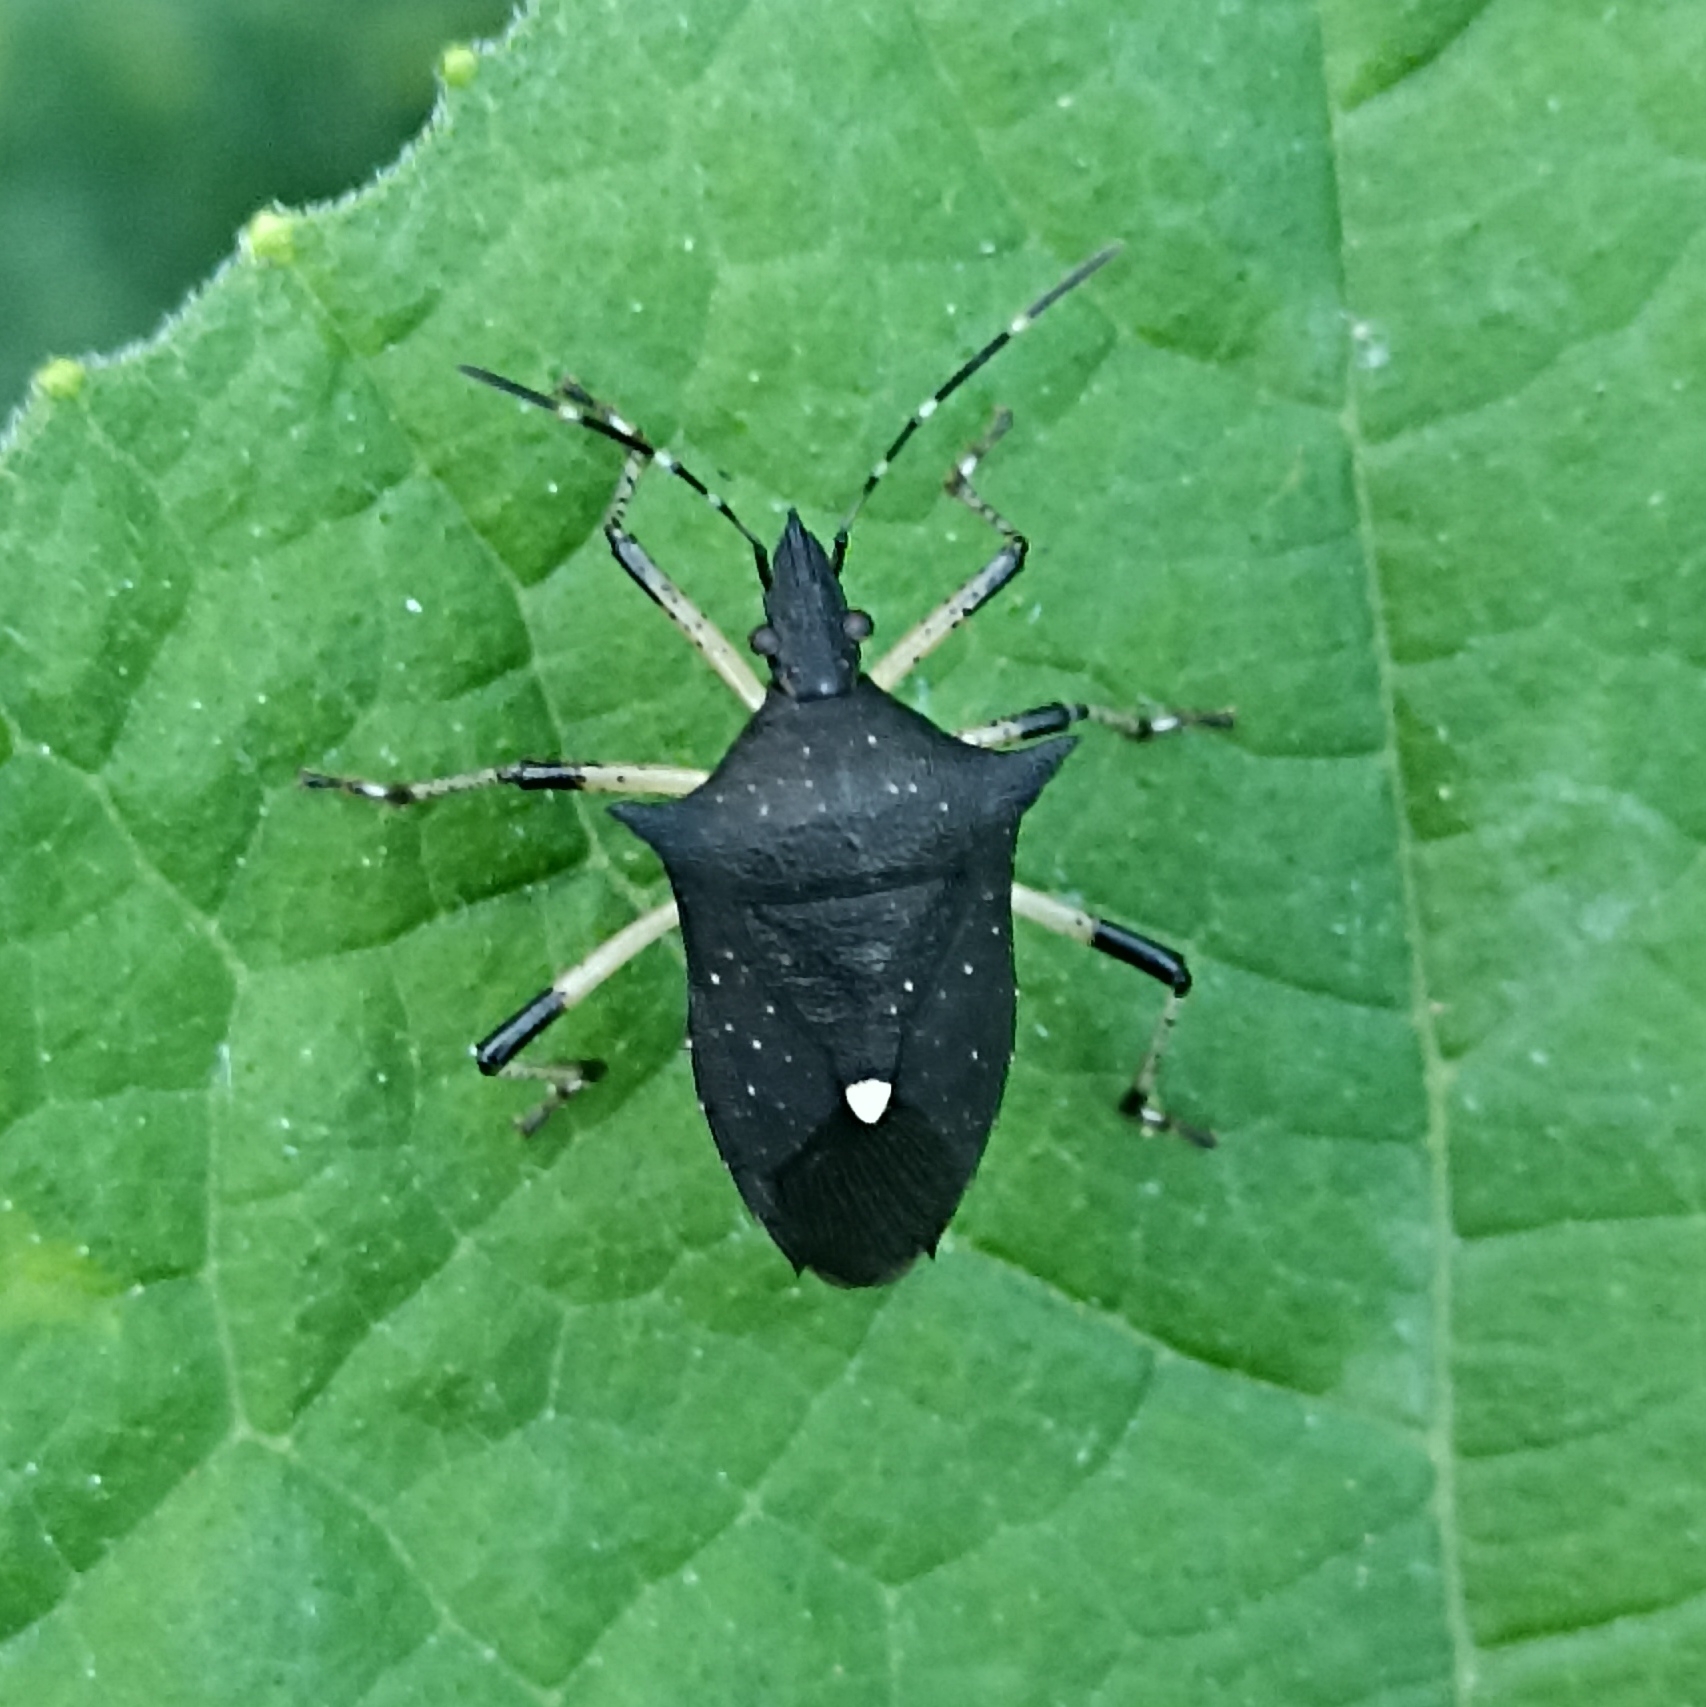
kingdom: Animalia
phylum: Arthropoda
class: Insecta
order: Hemiptera
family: Pentatomidae
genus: Proxys
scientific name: Proxys punctulatus
